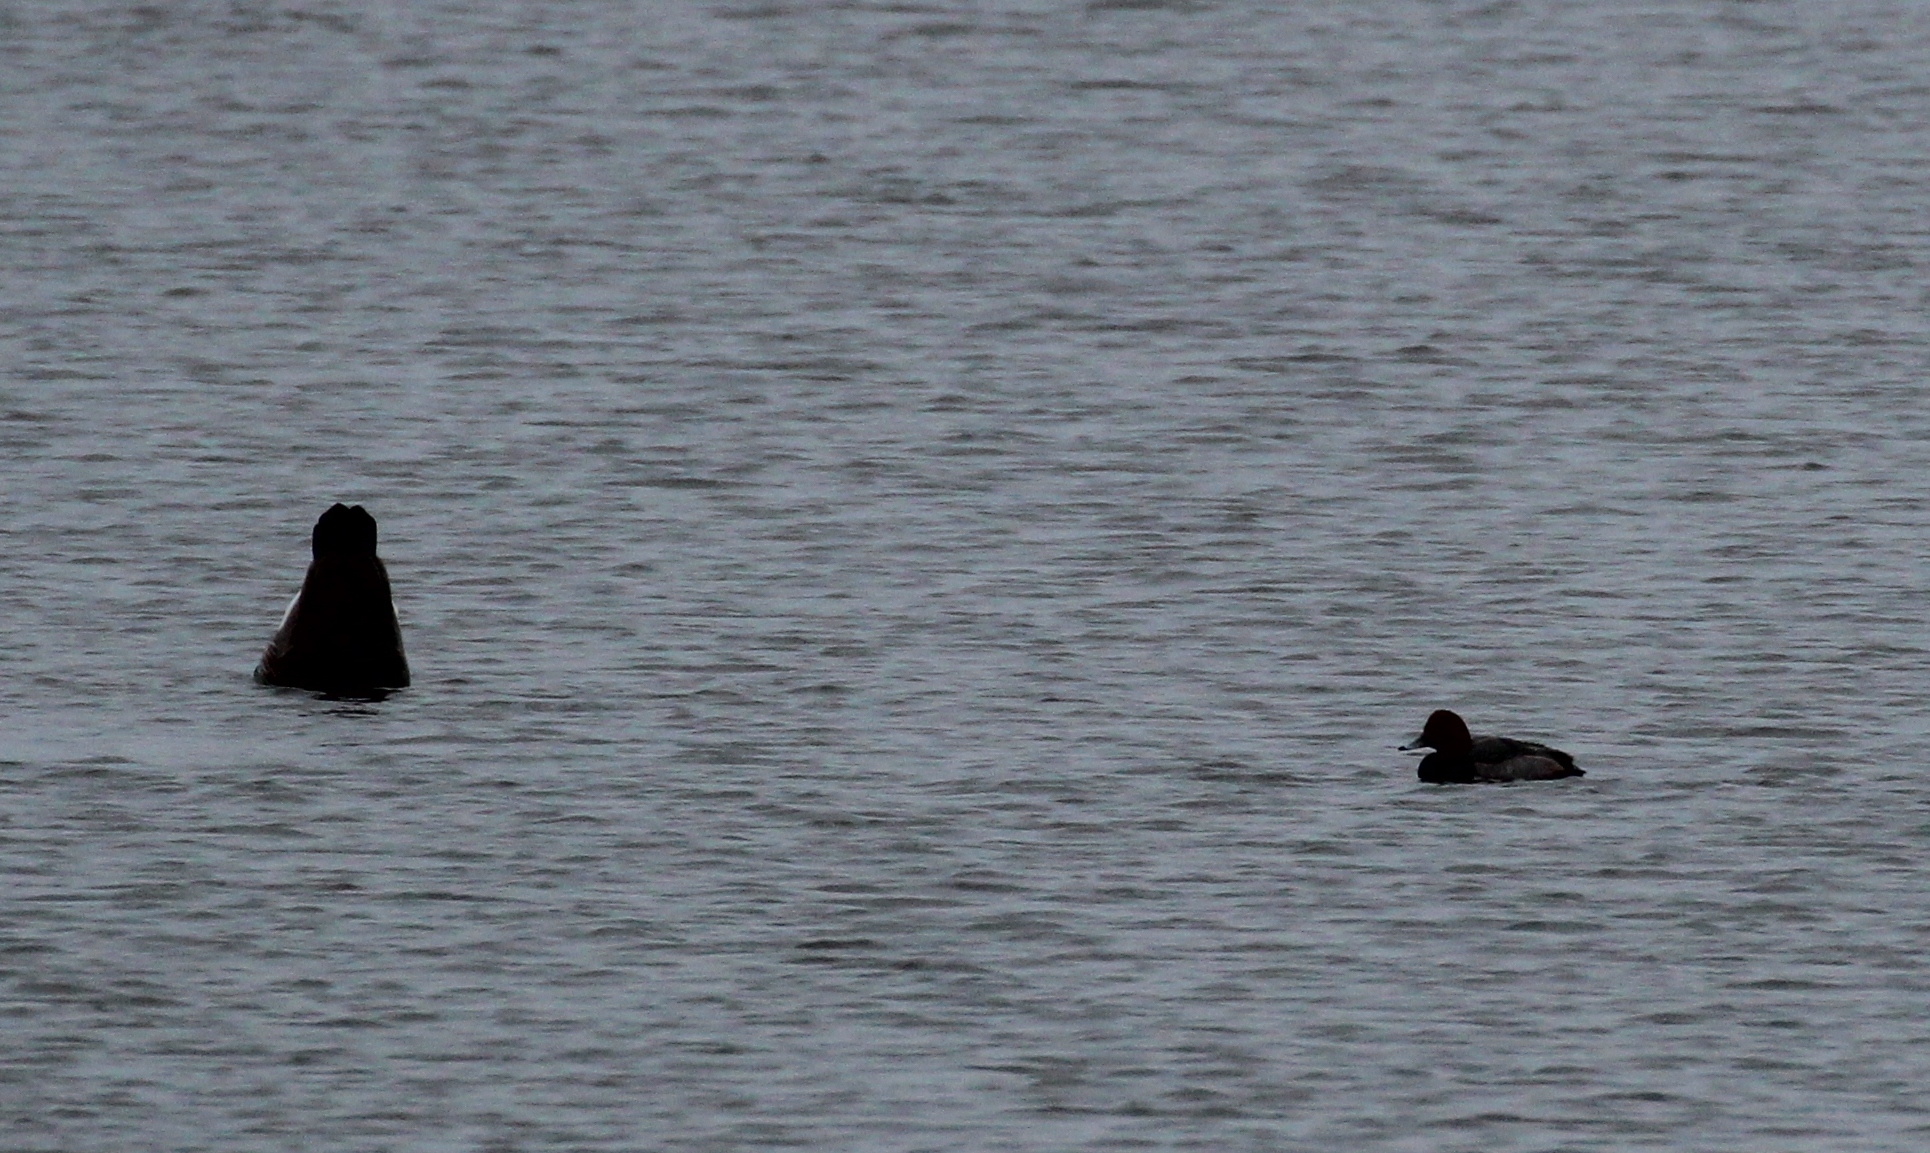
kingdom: Animalia
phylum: Chordata
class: Aves
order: Anseriformes
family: Anatidae
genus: Aythya
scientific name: Aythya americana
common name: Redhead
